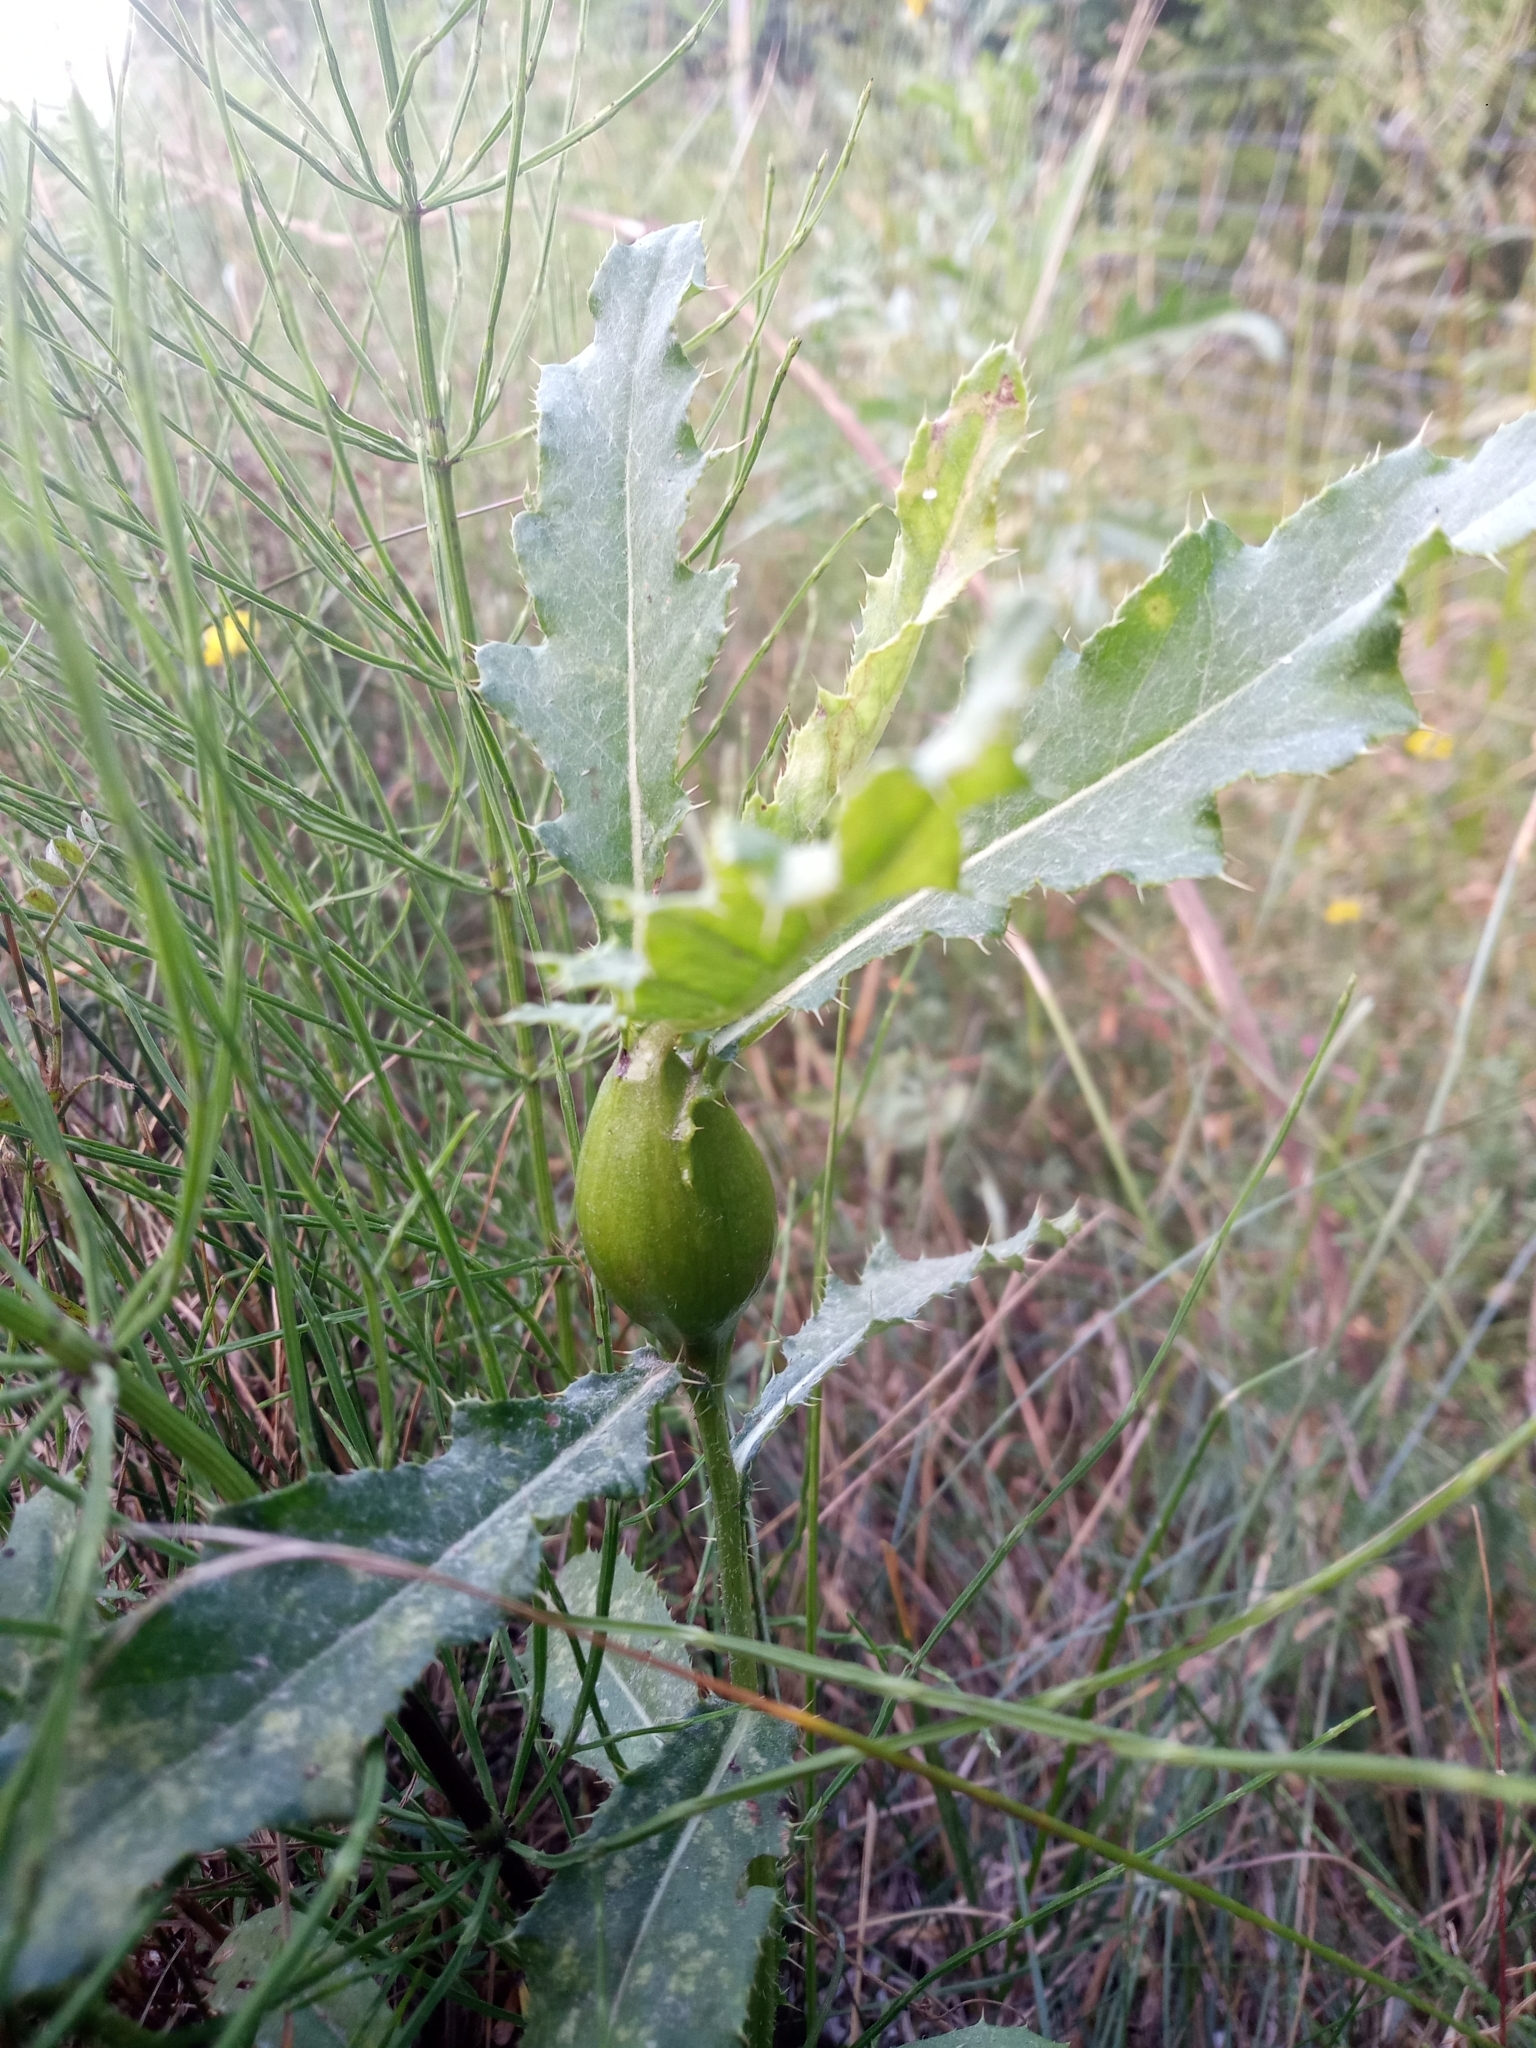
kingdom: Animalia
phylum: Arthropoda
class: Insecta
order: Diptera
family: Tephritidae
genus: Urophora
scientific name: Urophora cardui
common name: Fruit fly
